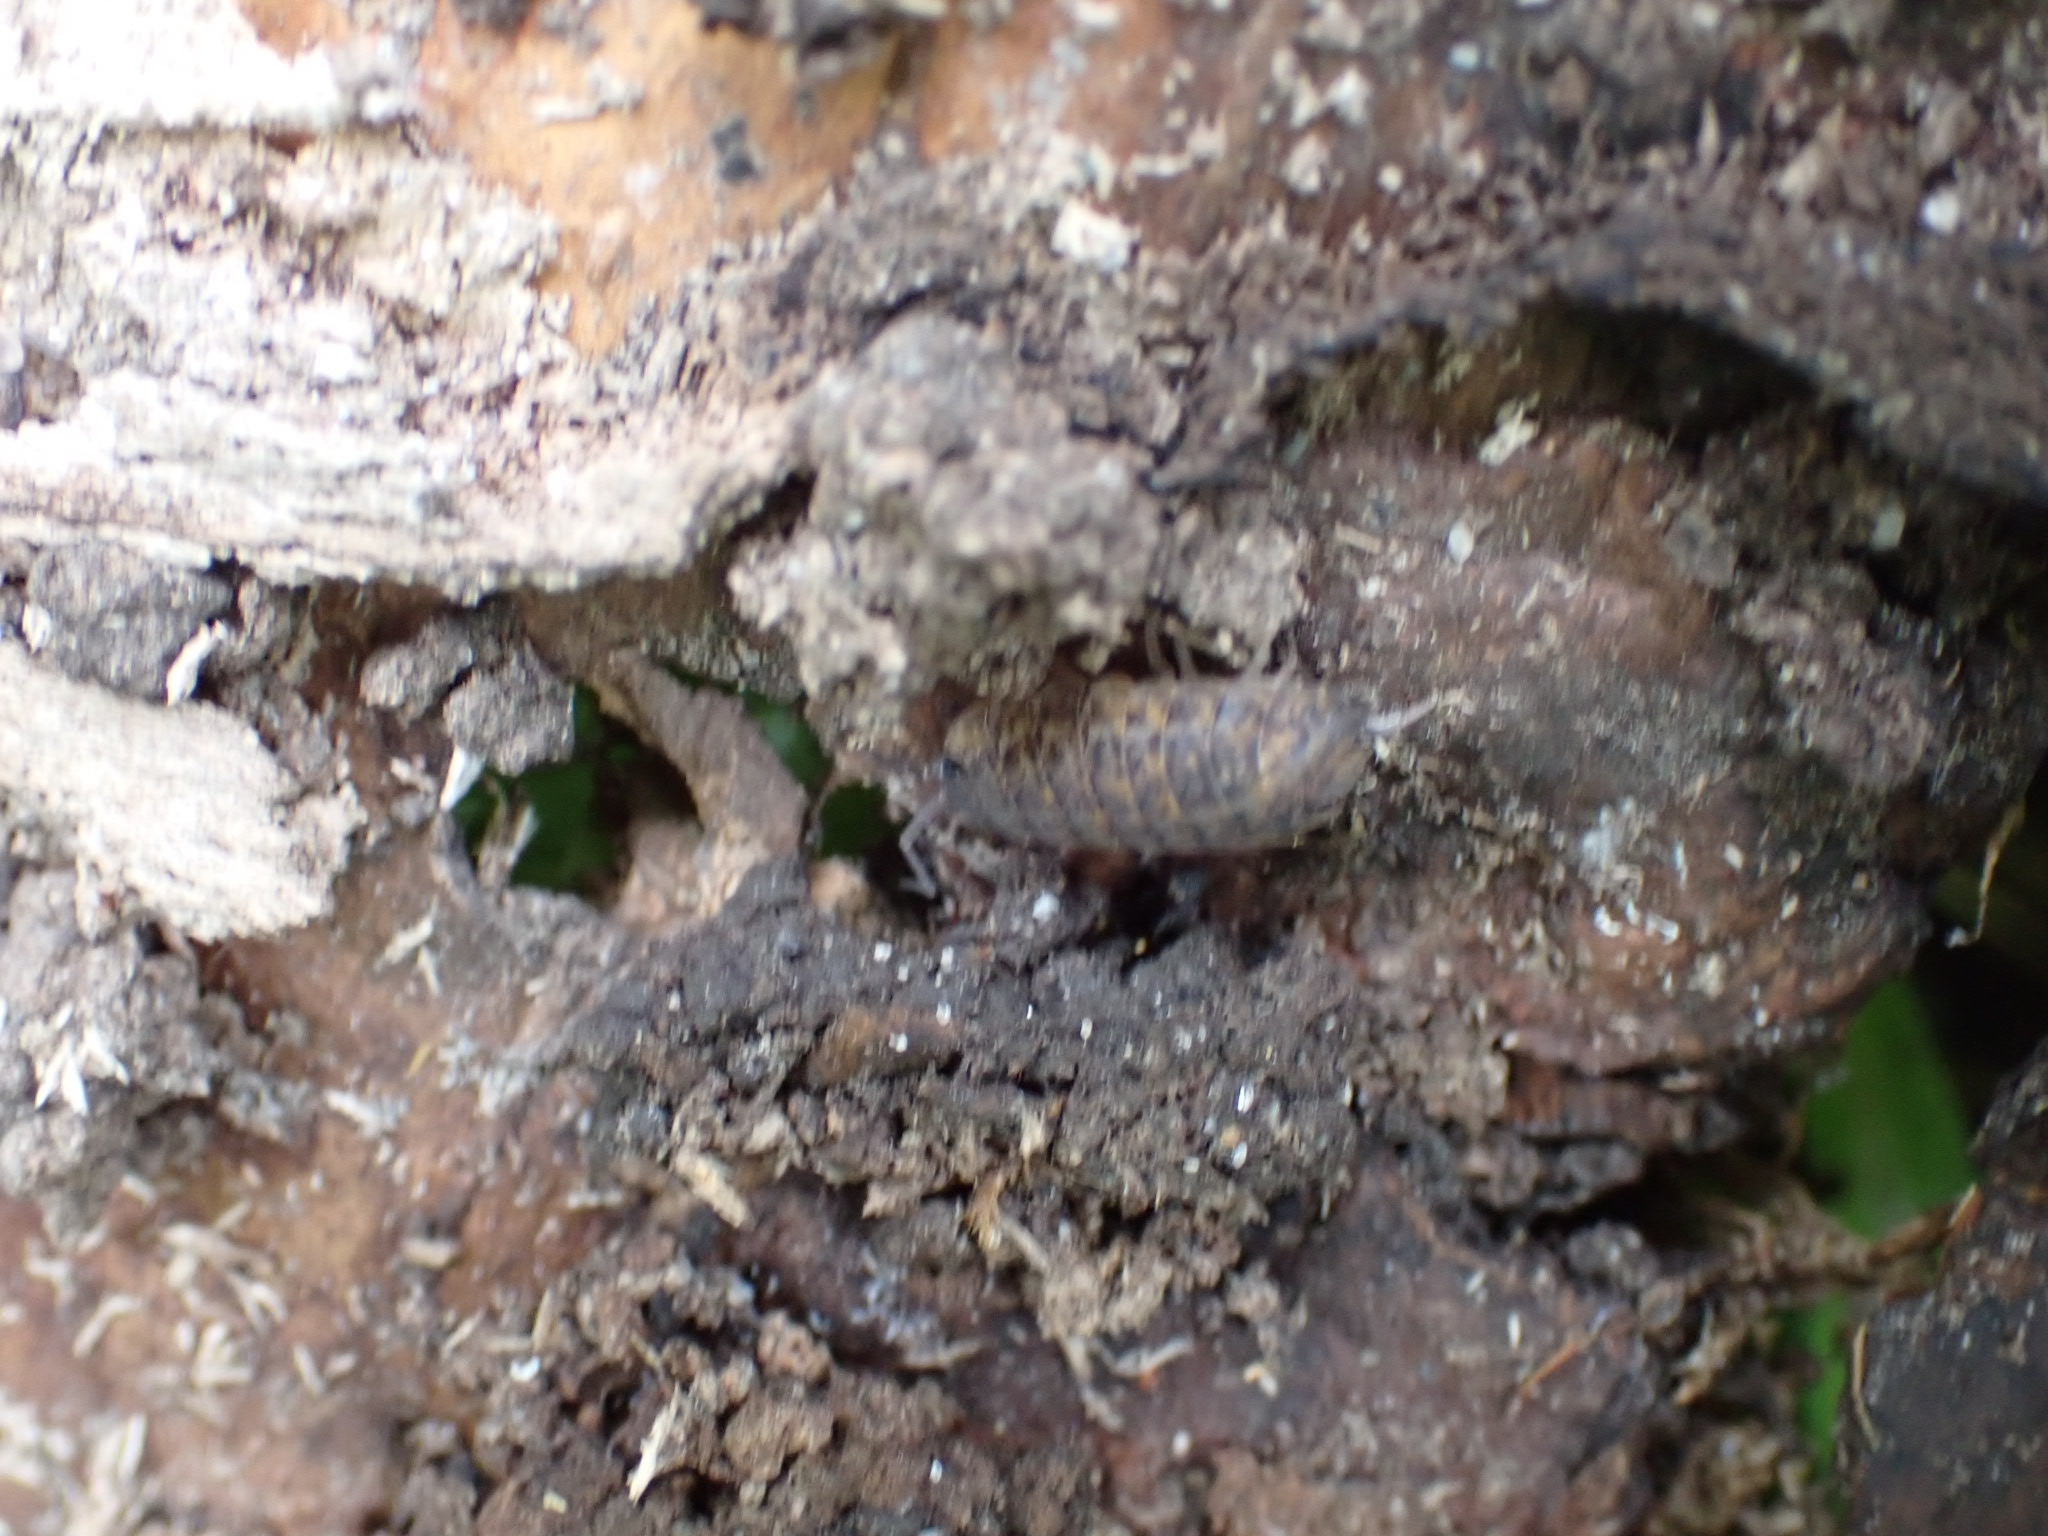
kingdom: Animalia
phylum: Arthropoda
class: Malacostraca
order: Isopoda
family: Trachelipodidae
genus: Trachelipus
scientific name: Trachelipus rathkii
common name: Isopod
